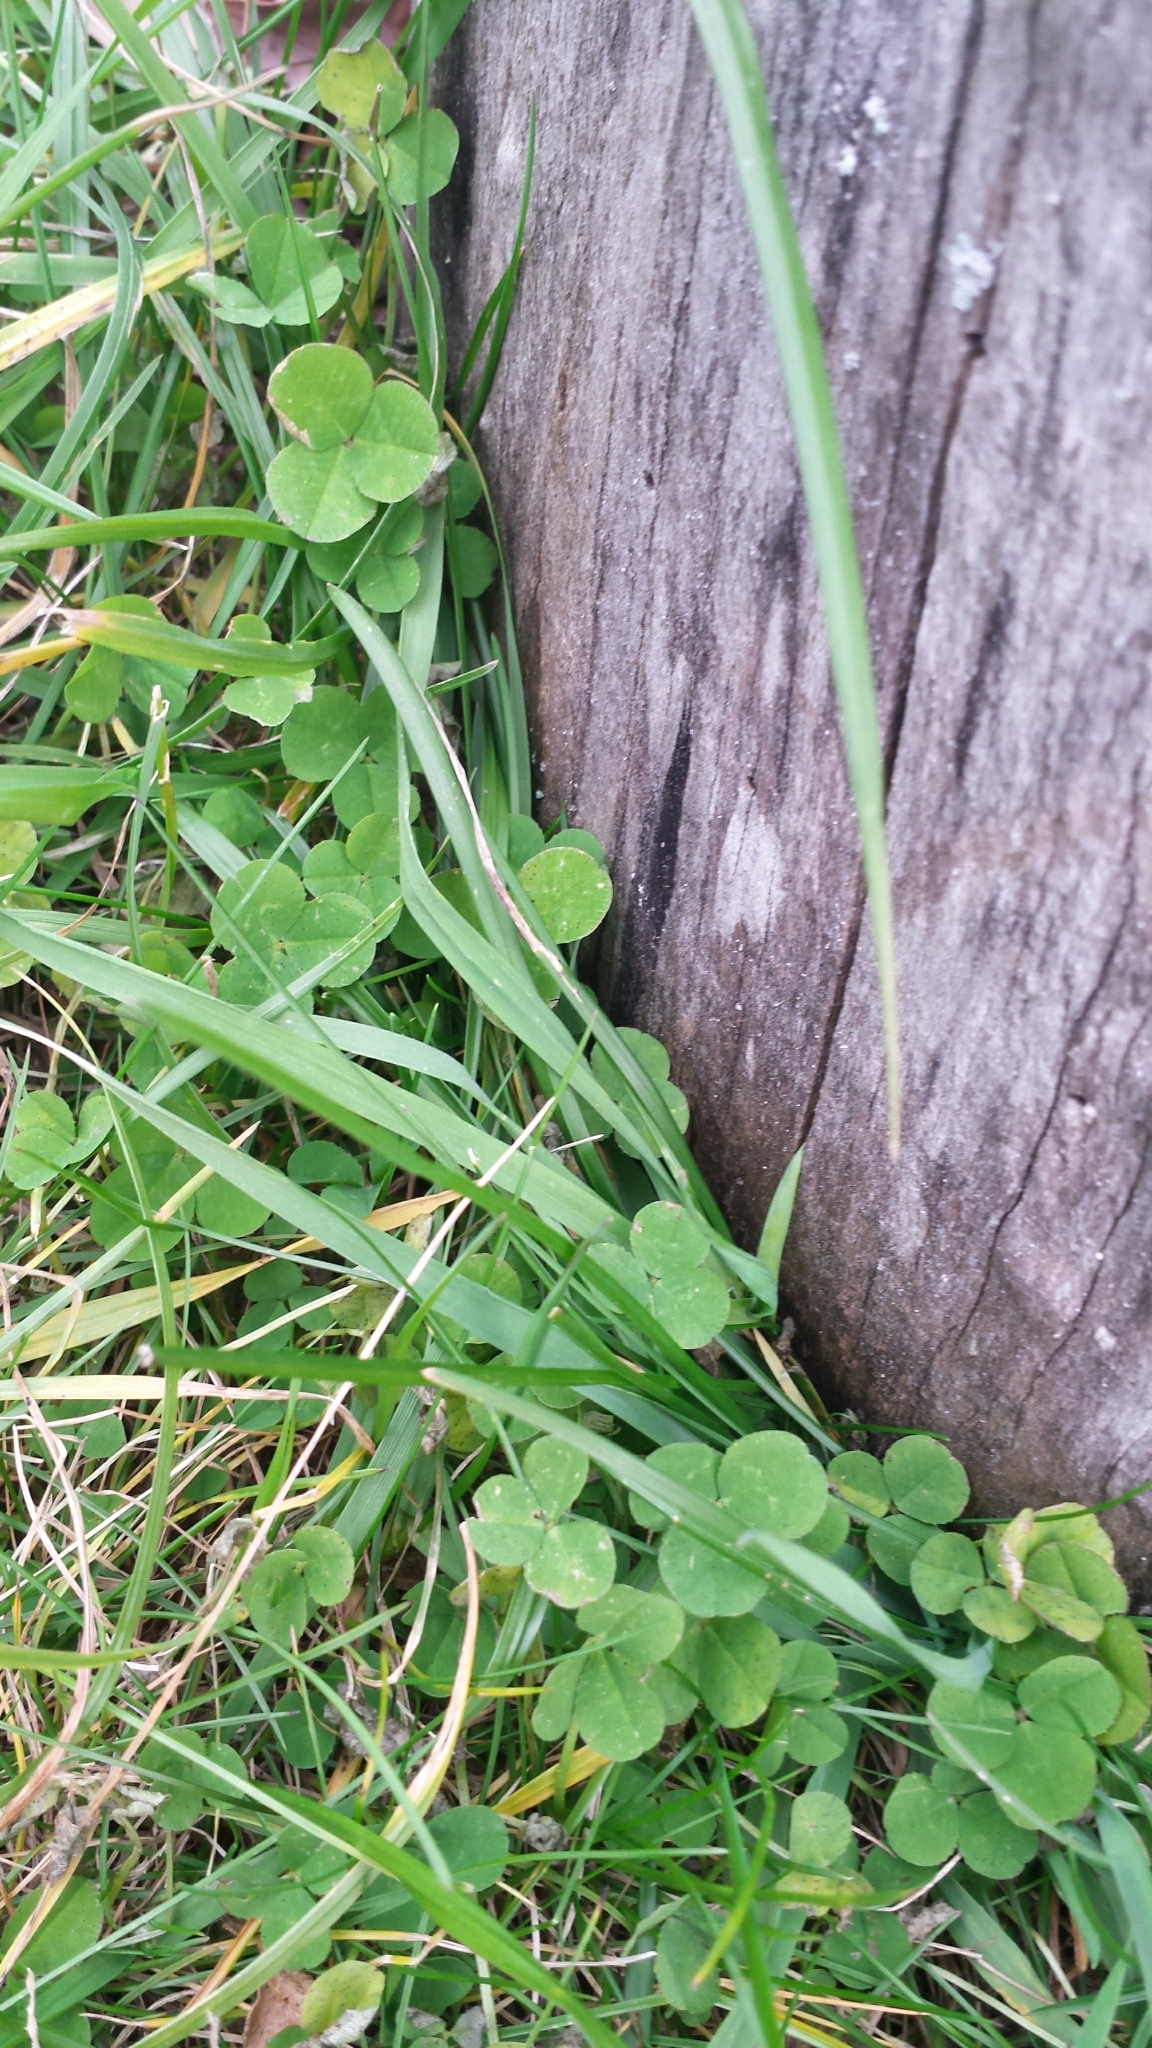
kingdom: Plantae
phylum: Tracheophyta
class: Magnoliopsida
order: Fabales
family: Fabaceae
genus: Trifolium
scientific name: Trifolium repens
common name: White clover
